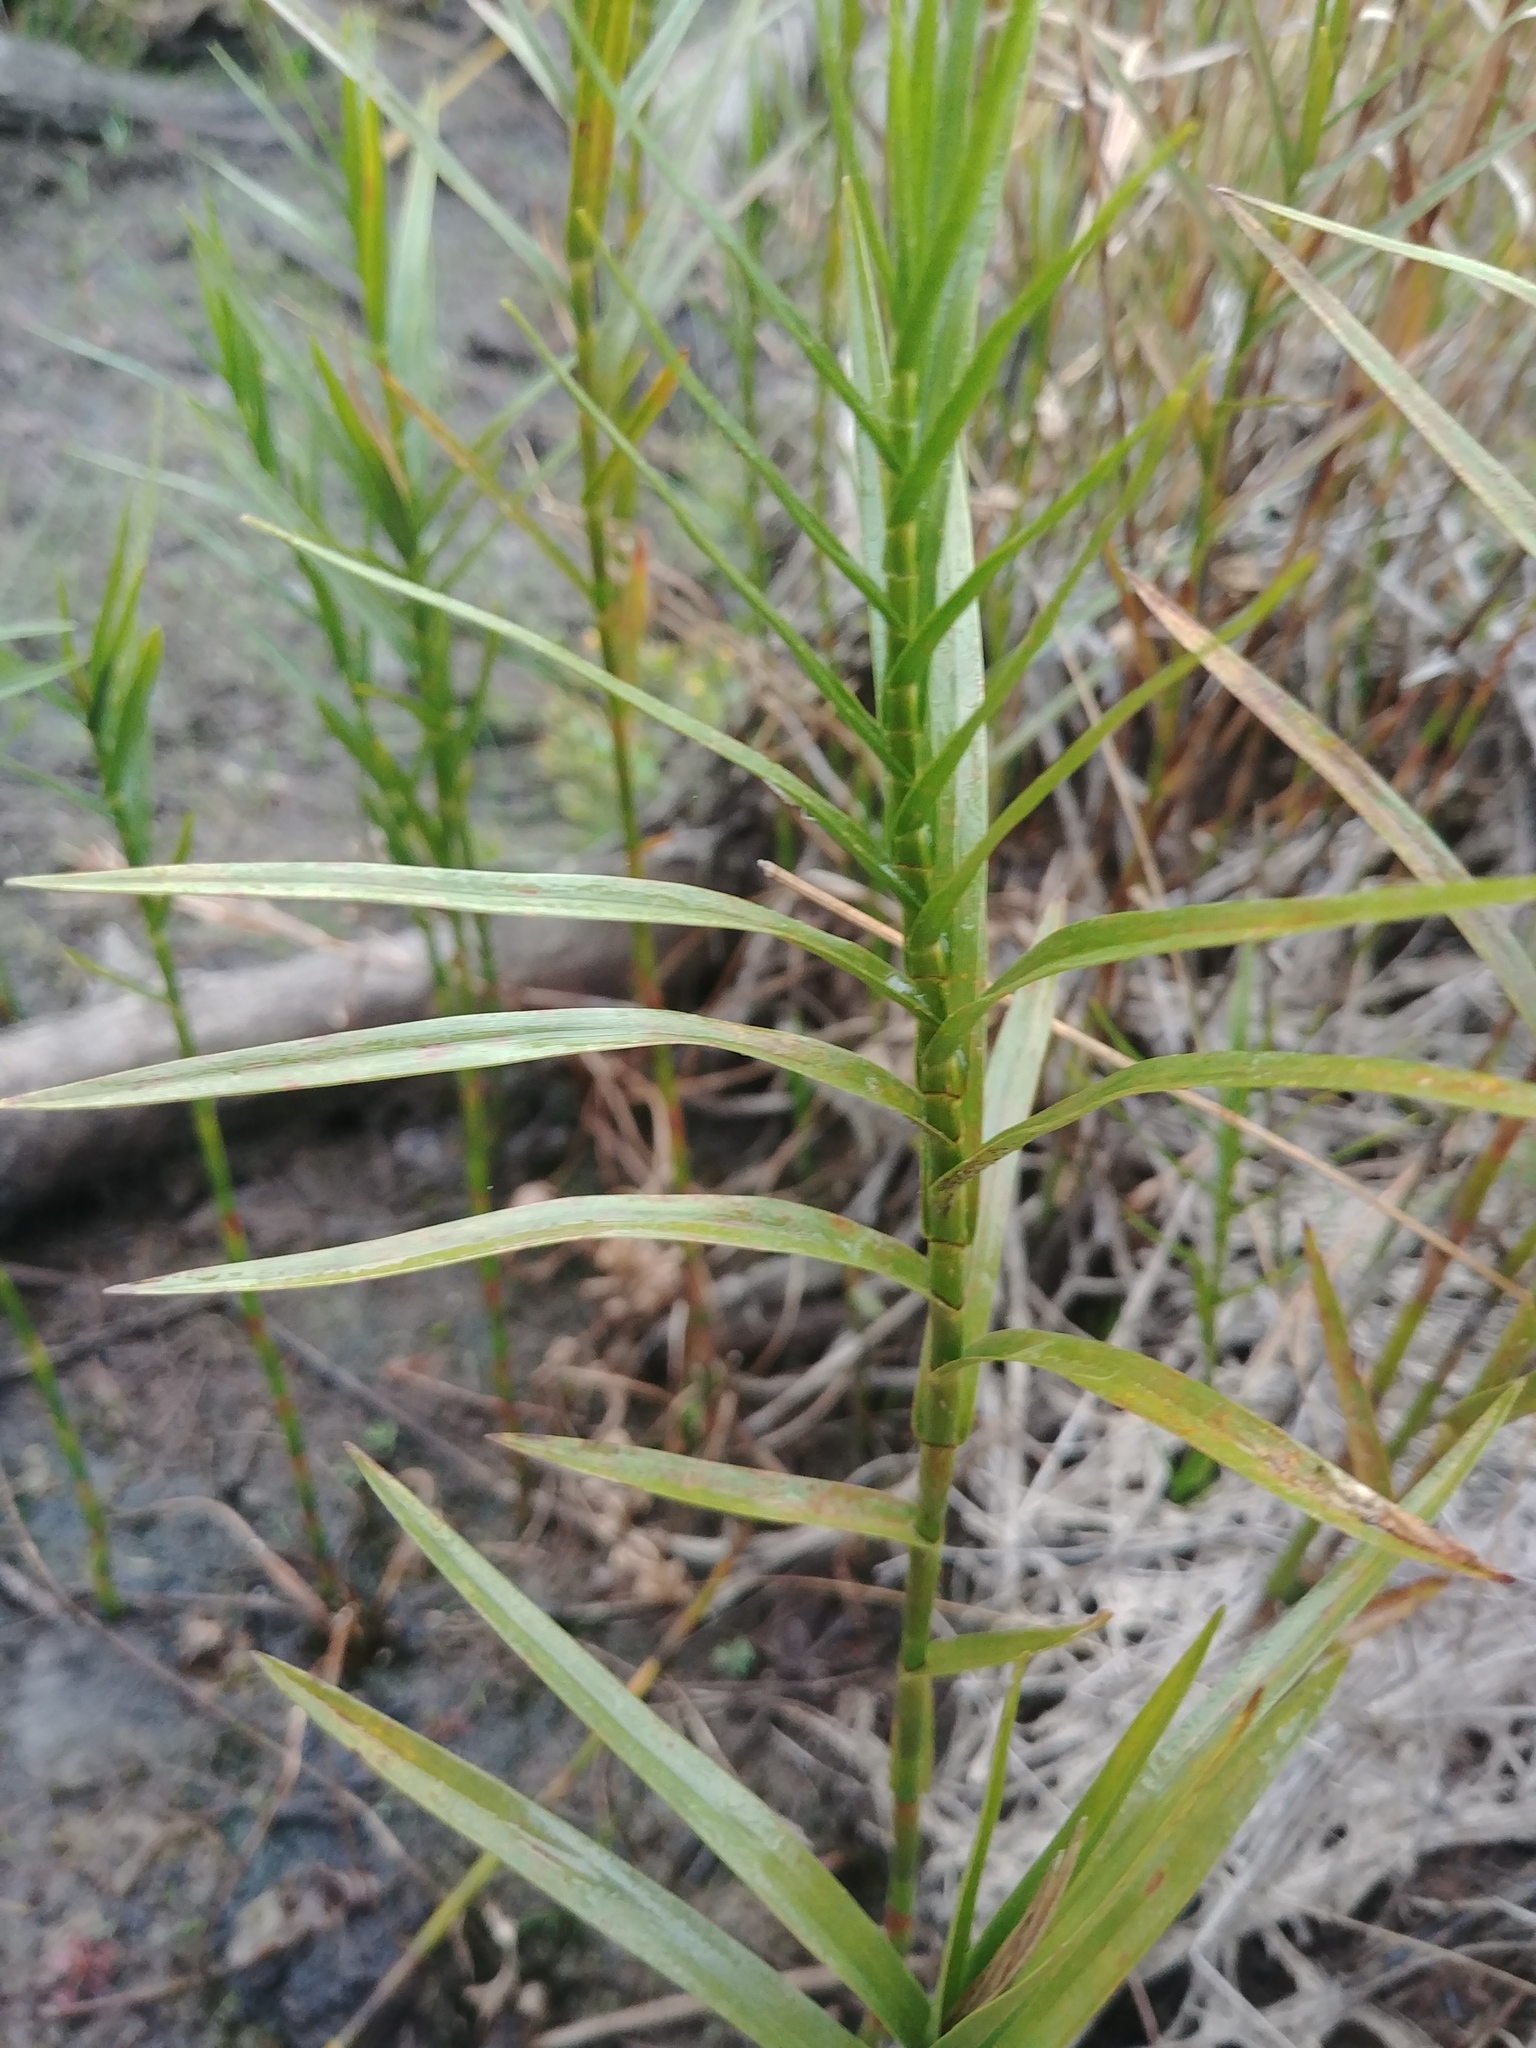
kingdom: Plantae
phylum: Tracheophyta
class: Liliopsida
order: Poales
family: Cyperaceae
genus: Dulichium
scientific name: Dulichium arundinaceum
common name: Three-way sedge
